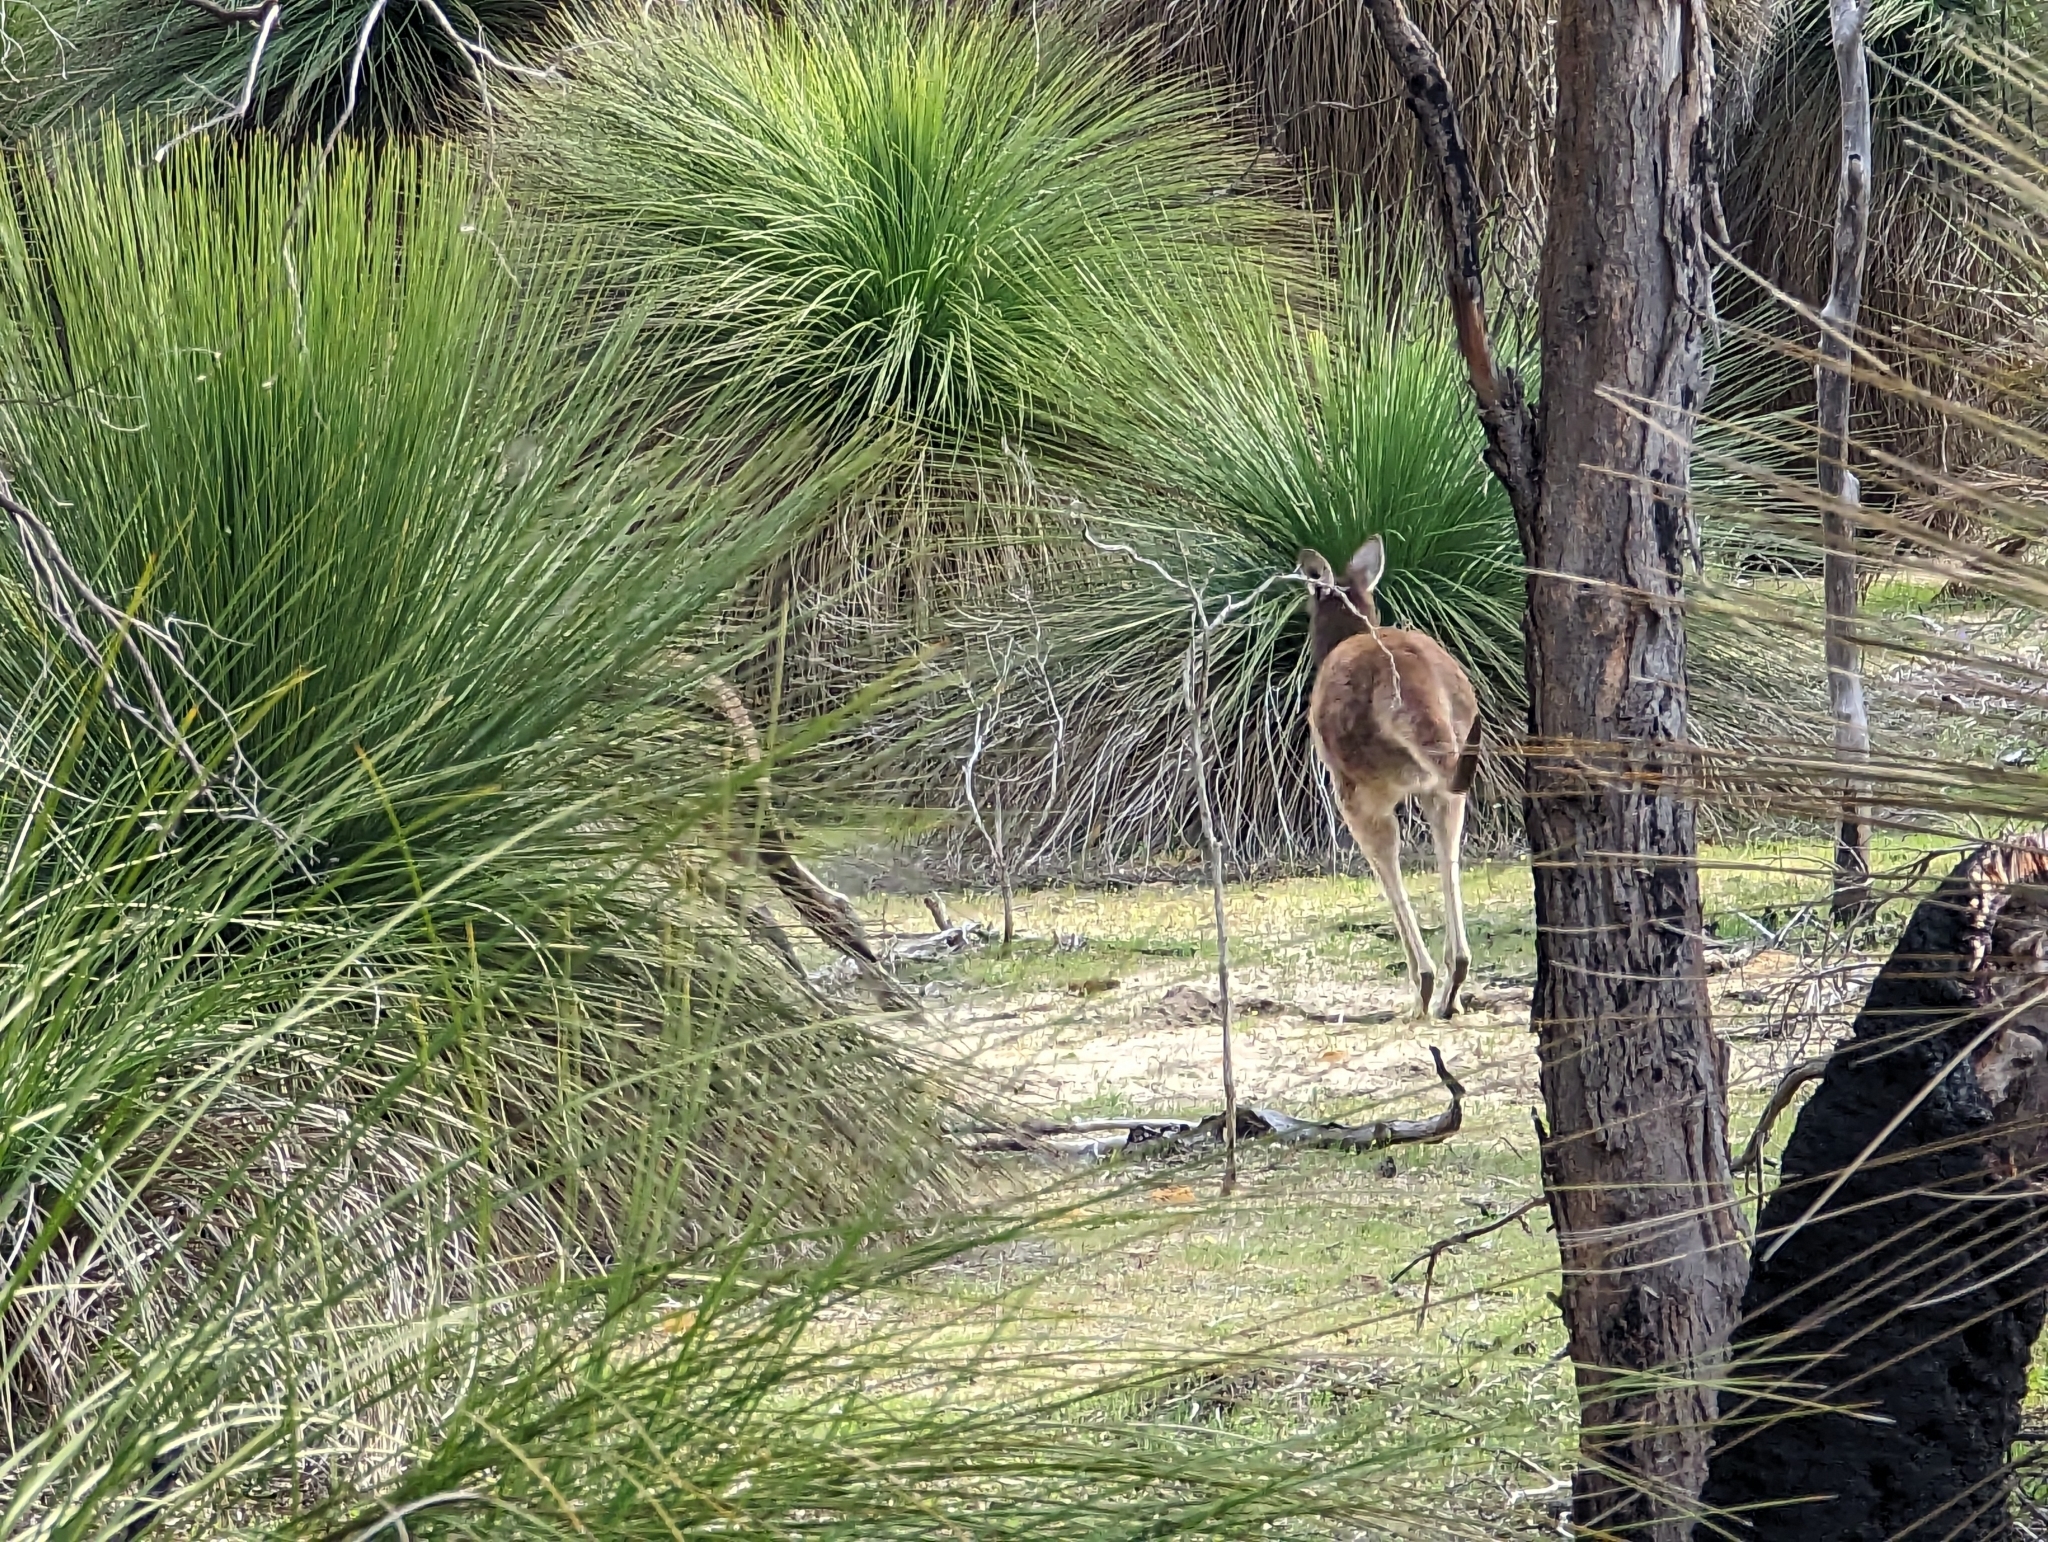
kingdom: Animalia
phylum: Chordata
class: Mammalia
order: Diprotodontia
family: Macropodidae
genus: Macropus
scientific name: Macropus fuliginosus
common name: Western grey kangaroo
